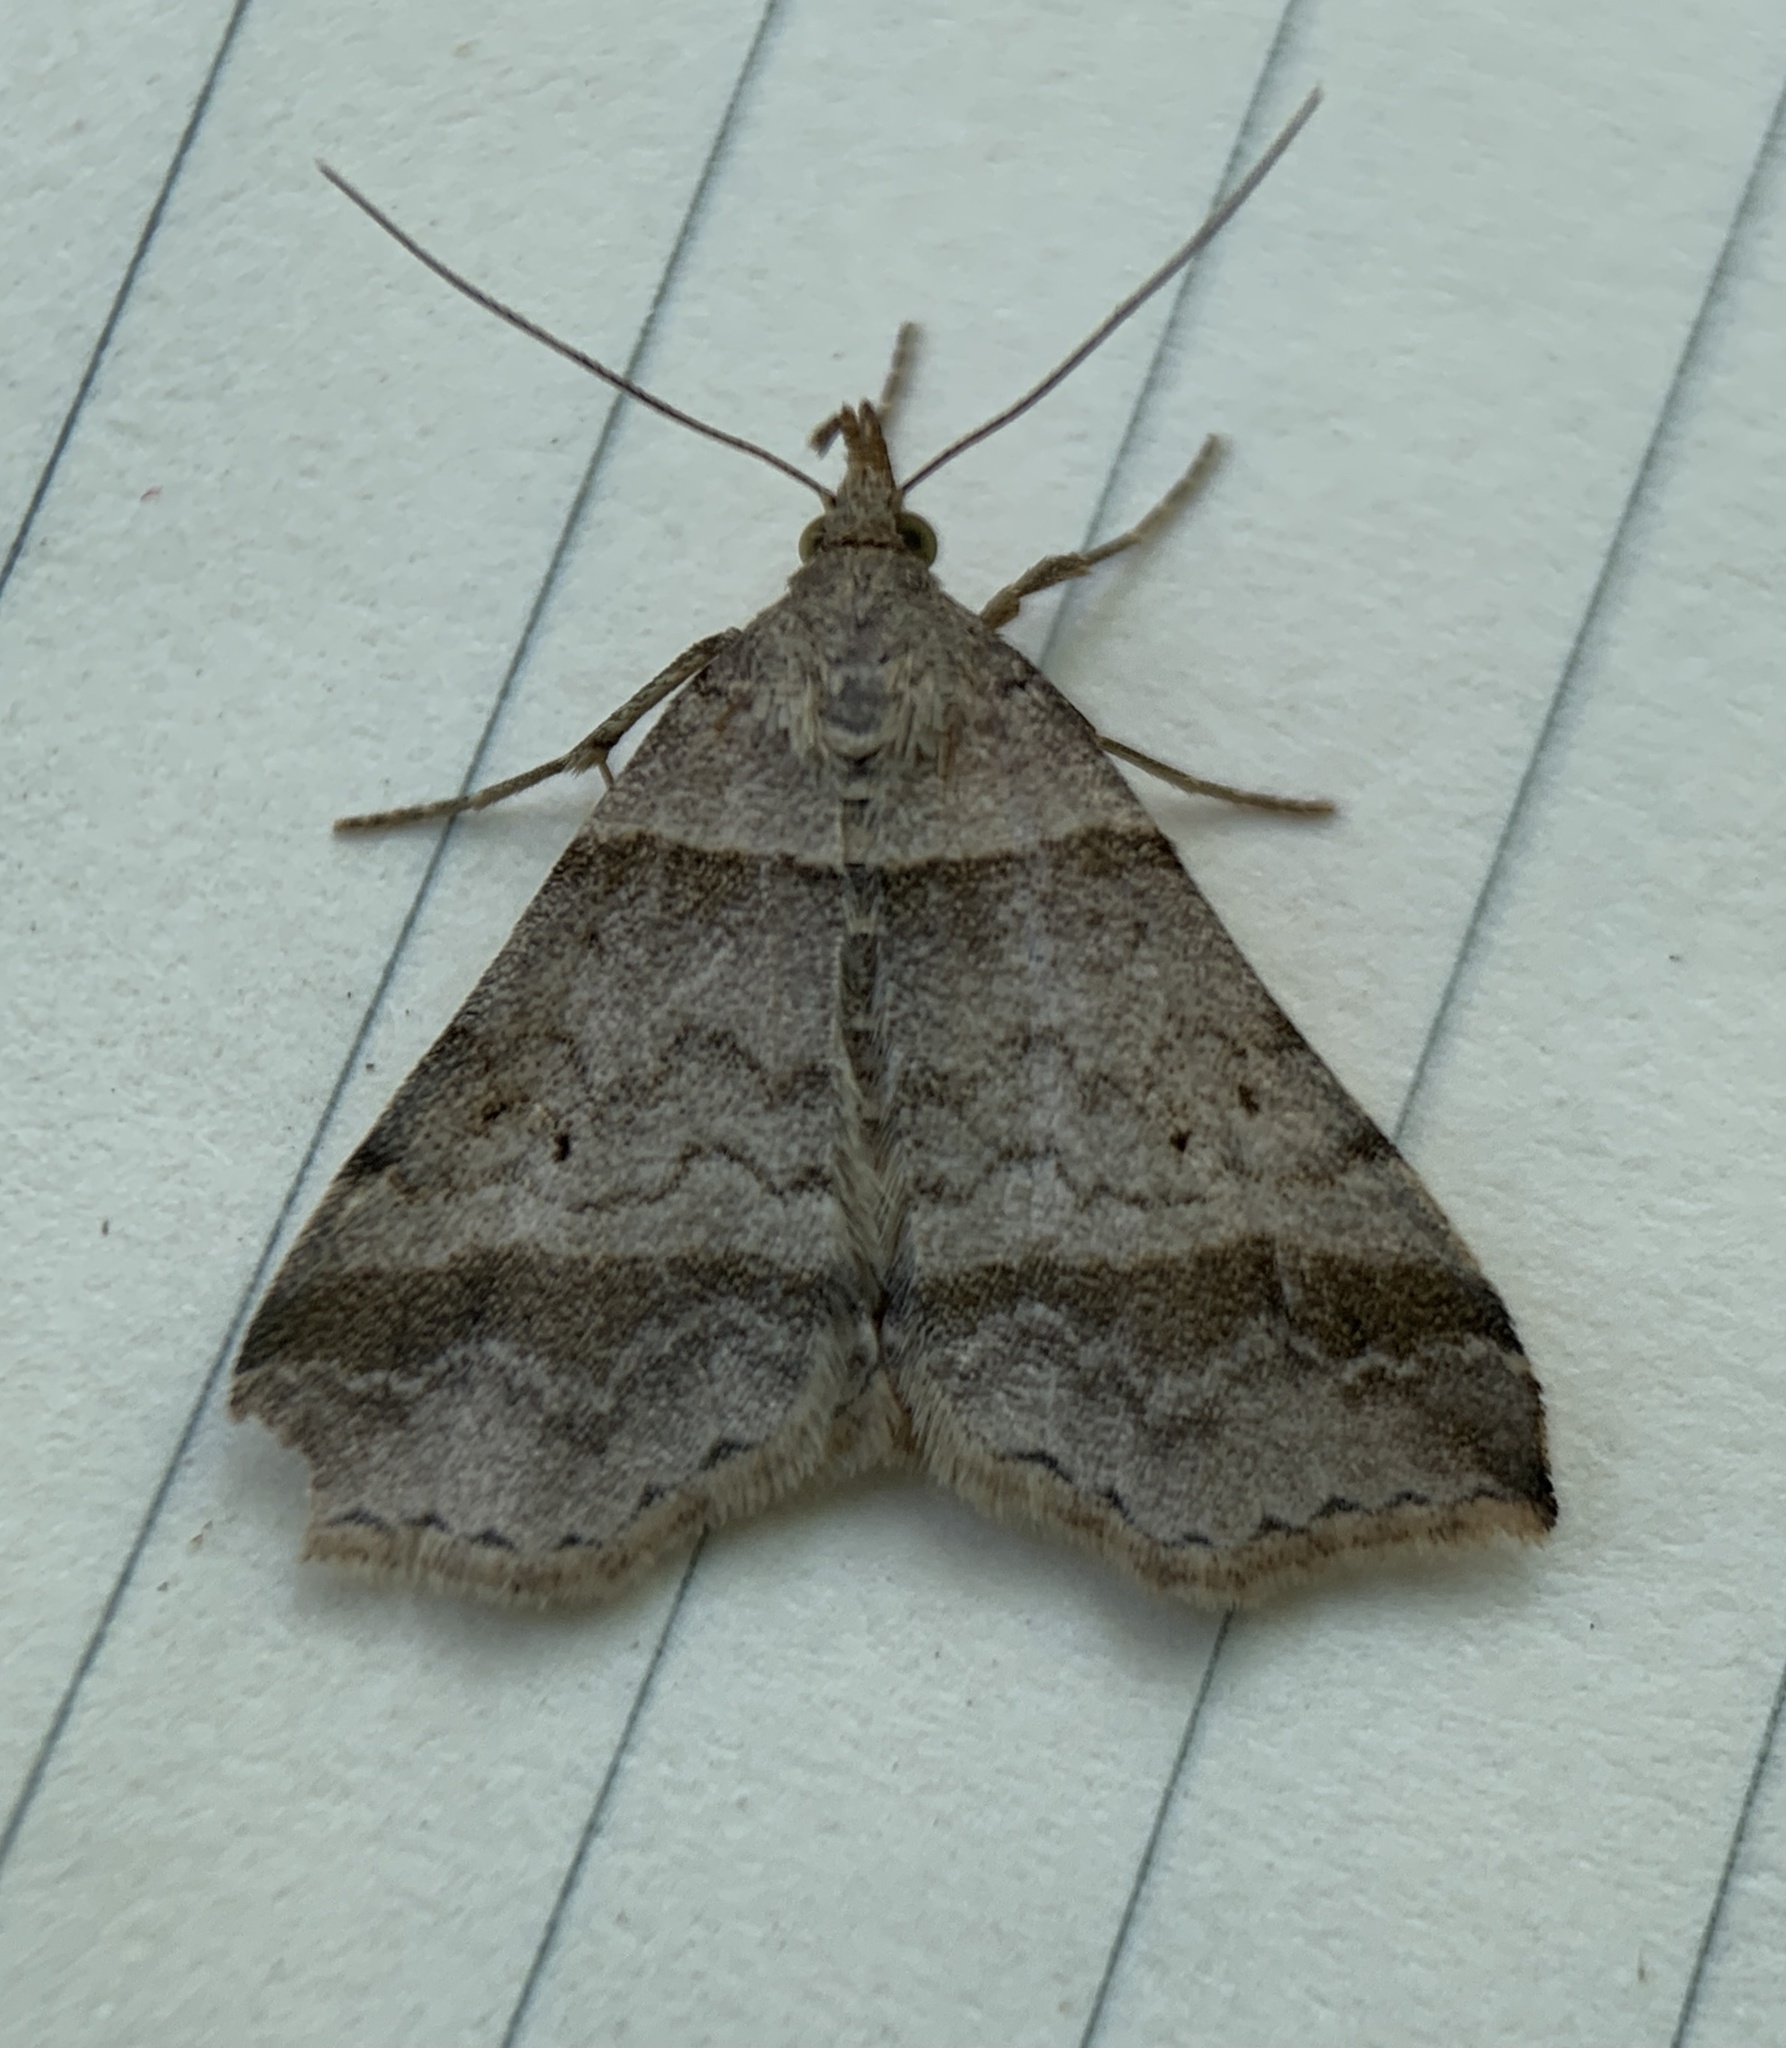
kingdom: Animalia
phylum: Arthropoda
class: Insecta
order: Lepidoptera
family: Erebidae
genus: Phaeolita
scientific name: Phaeolita pyramusalis
